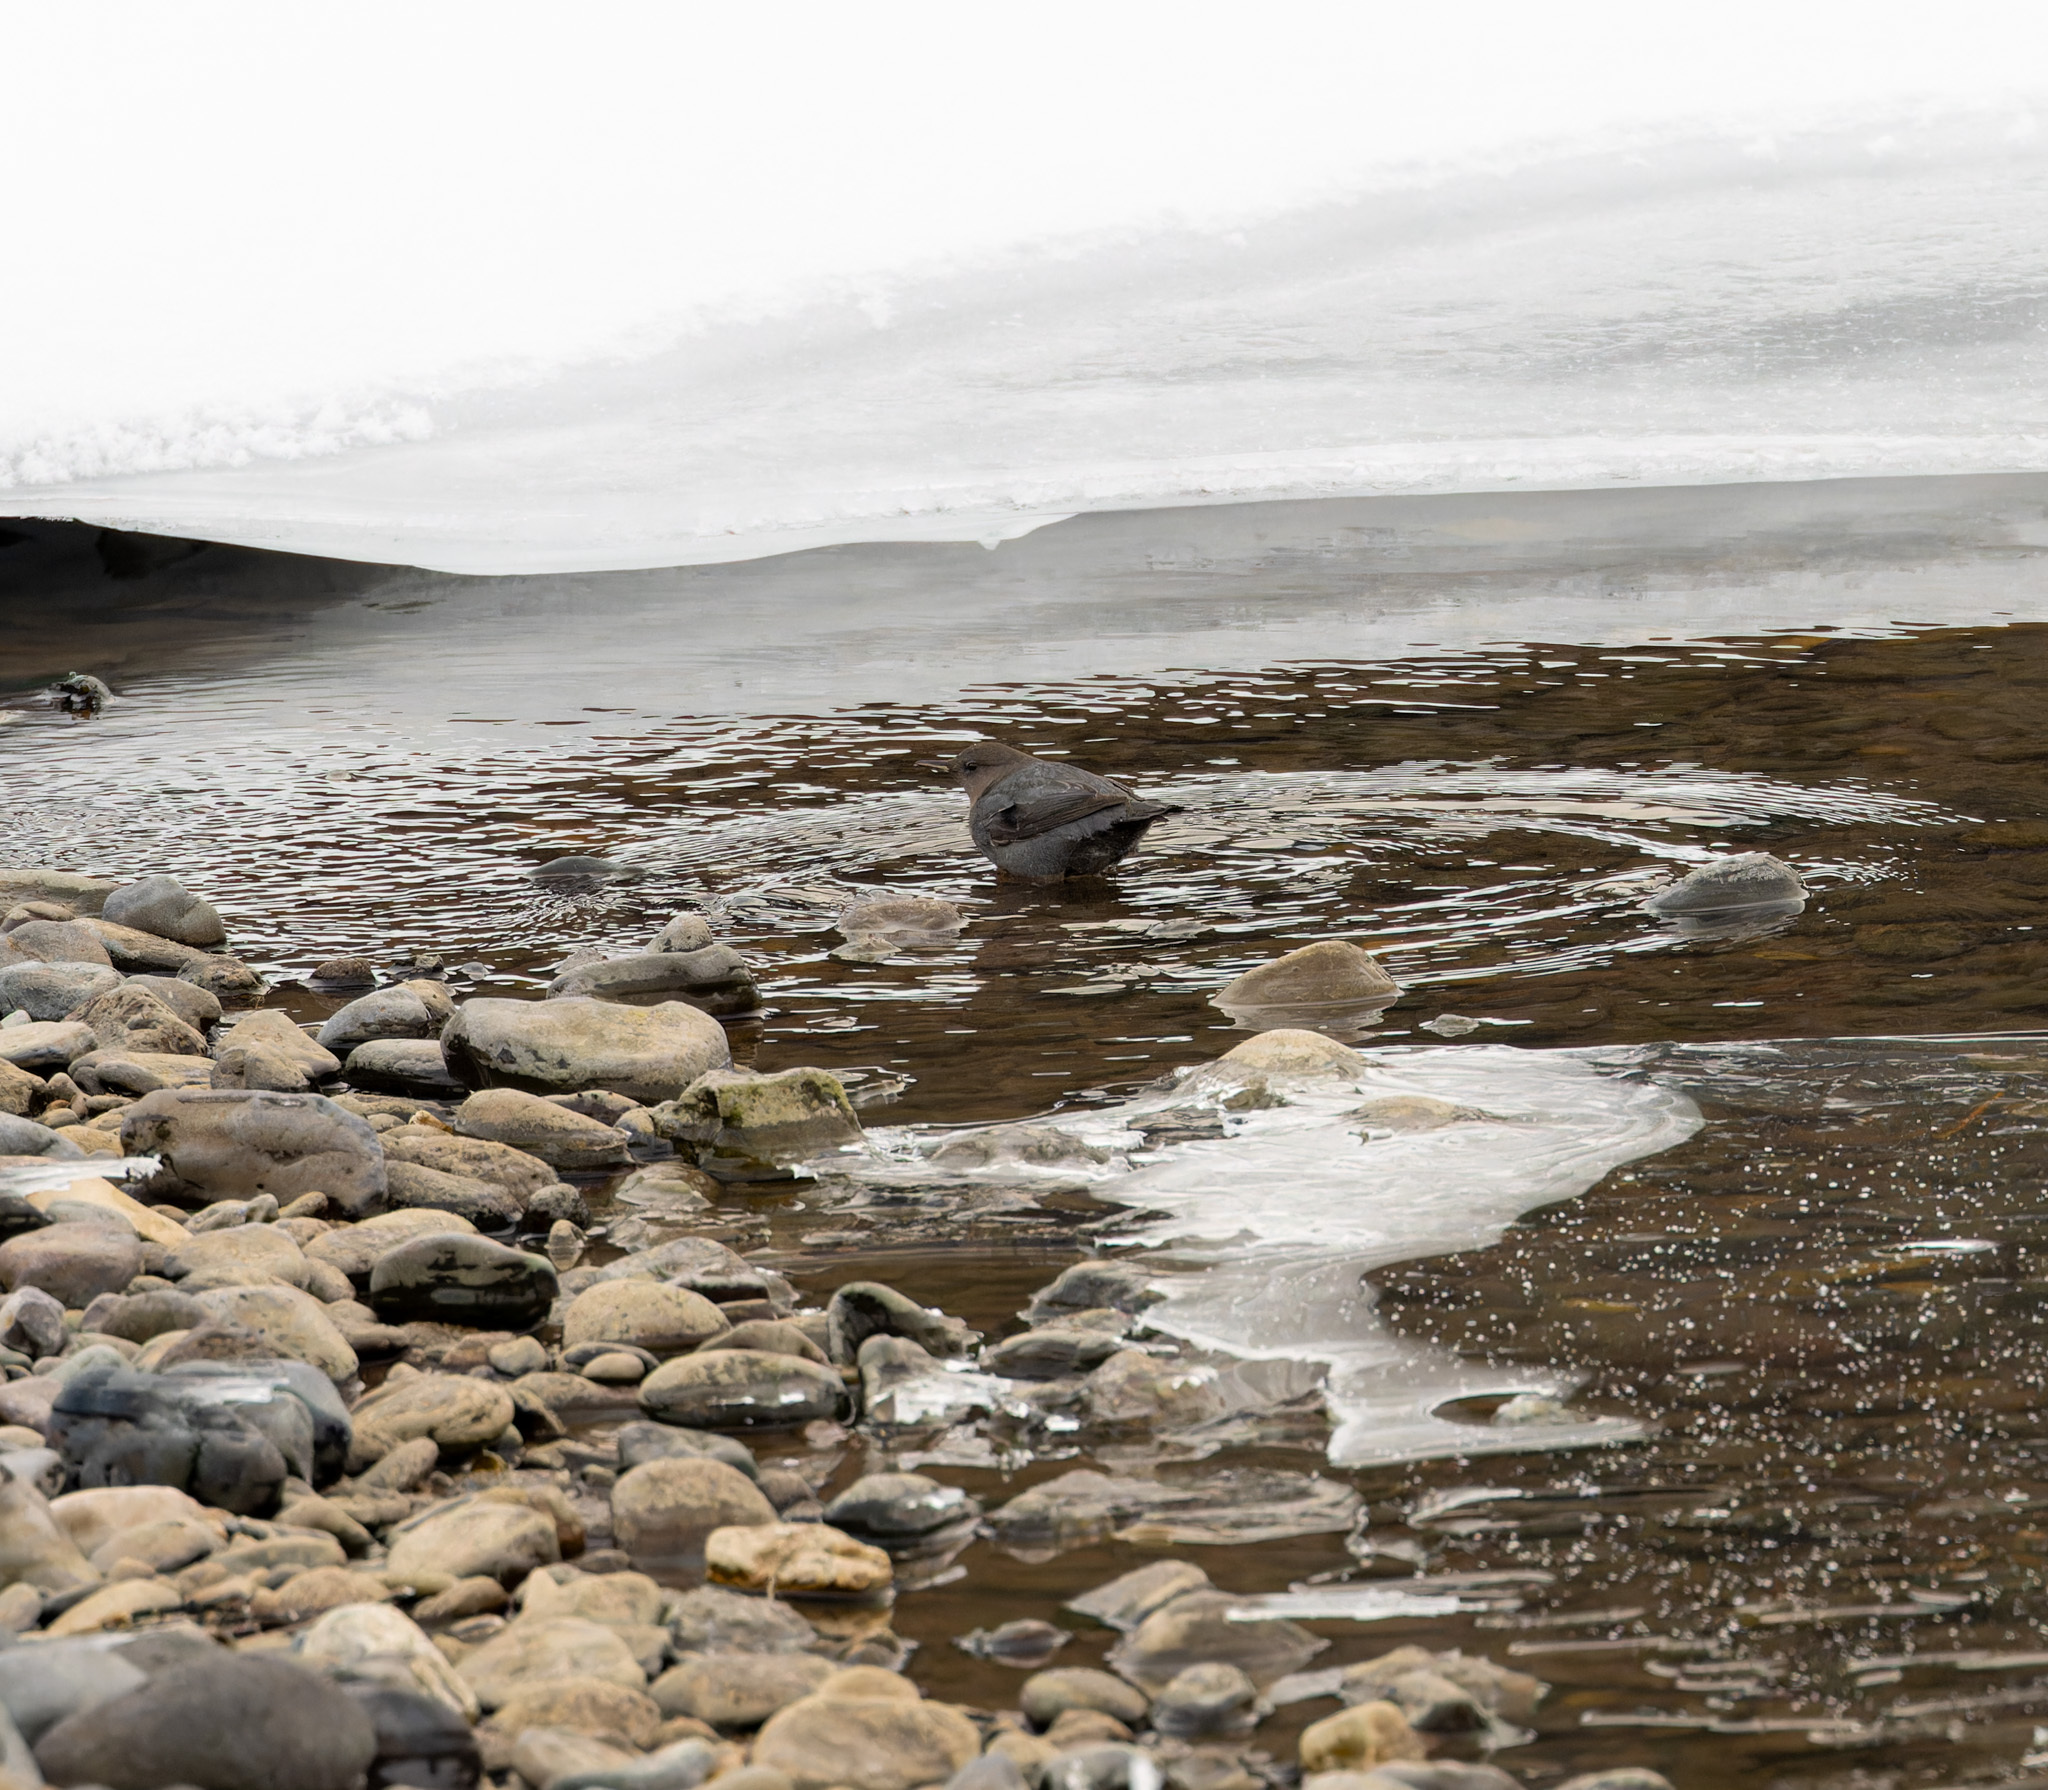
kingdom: Animalia
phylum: Chordata
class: Aves
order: Passeriformes
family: Cinclidae
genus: Cinclus
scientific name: Cinclus mexicanus
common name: American dipper
